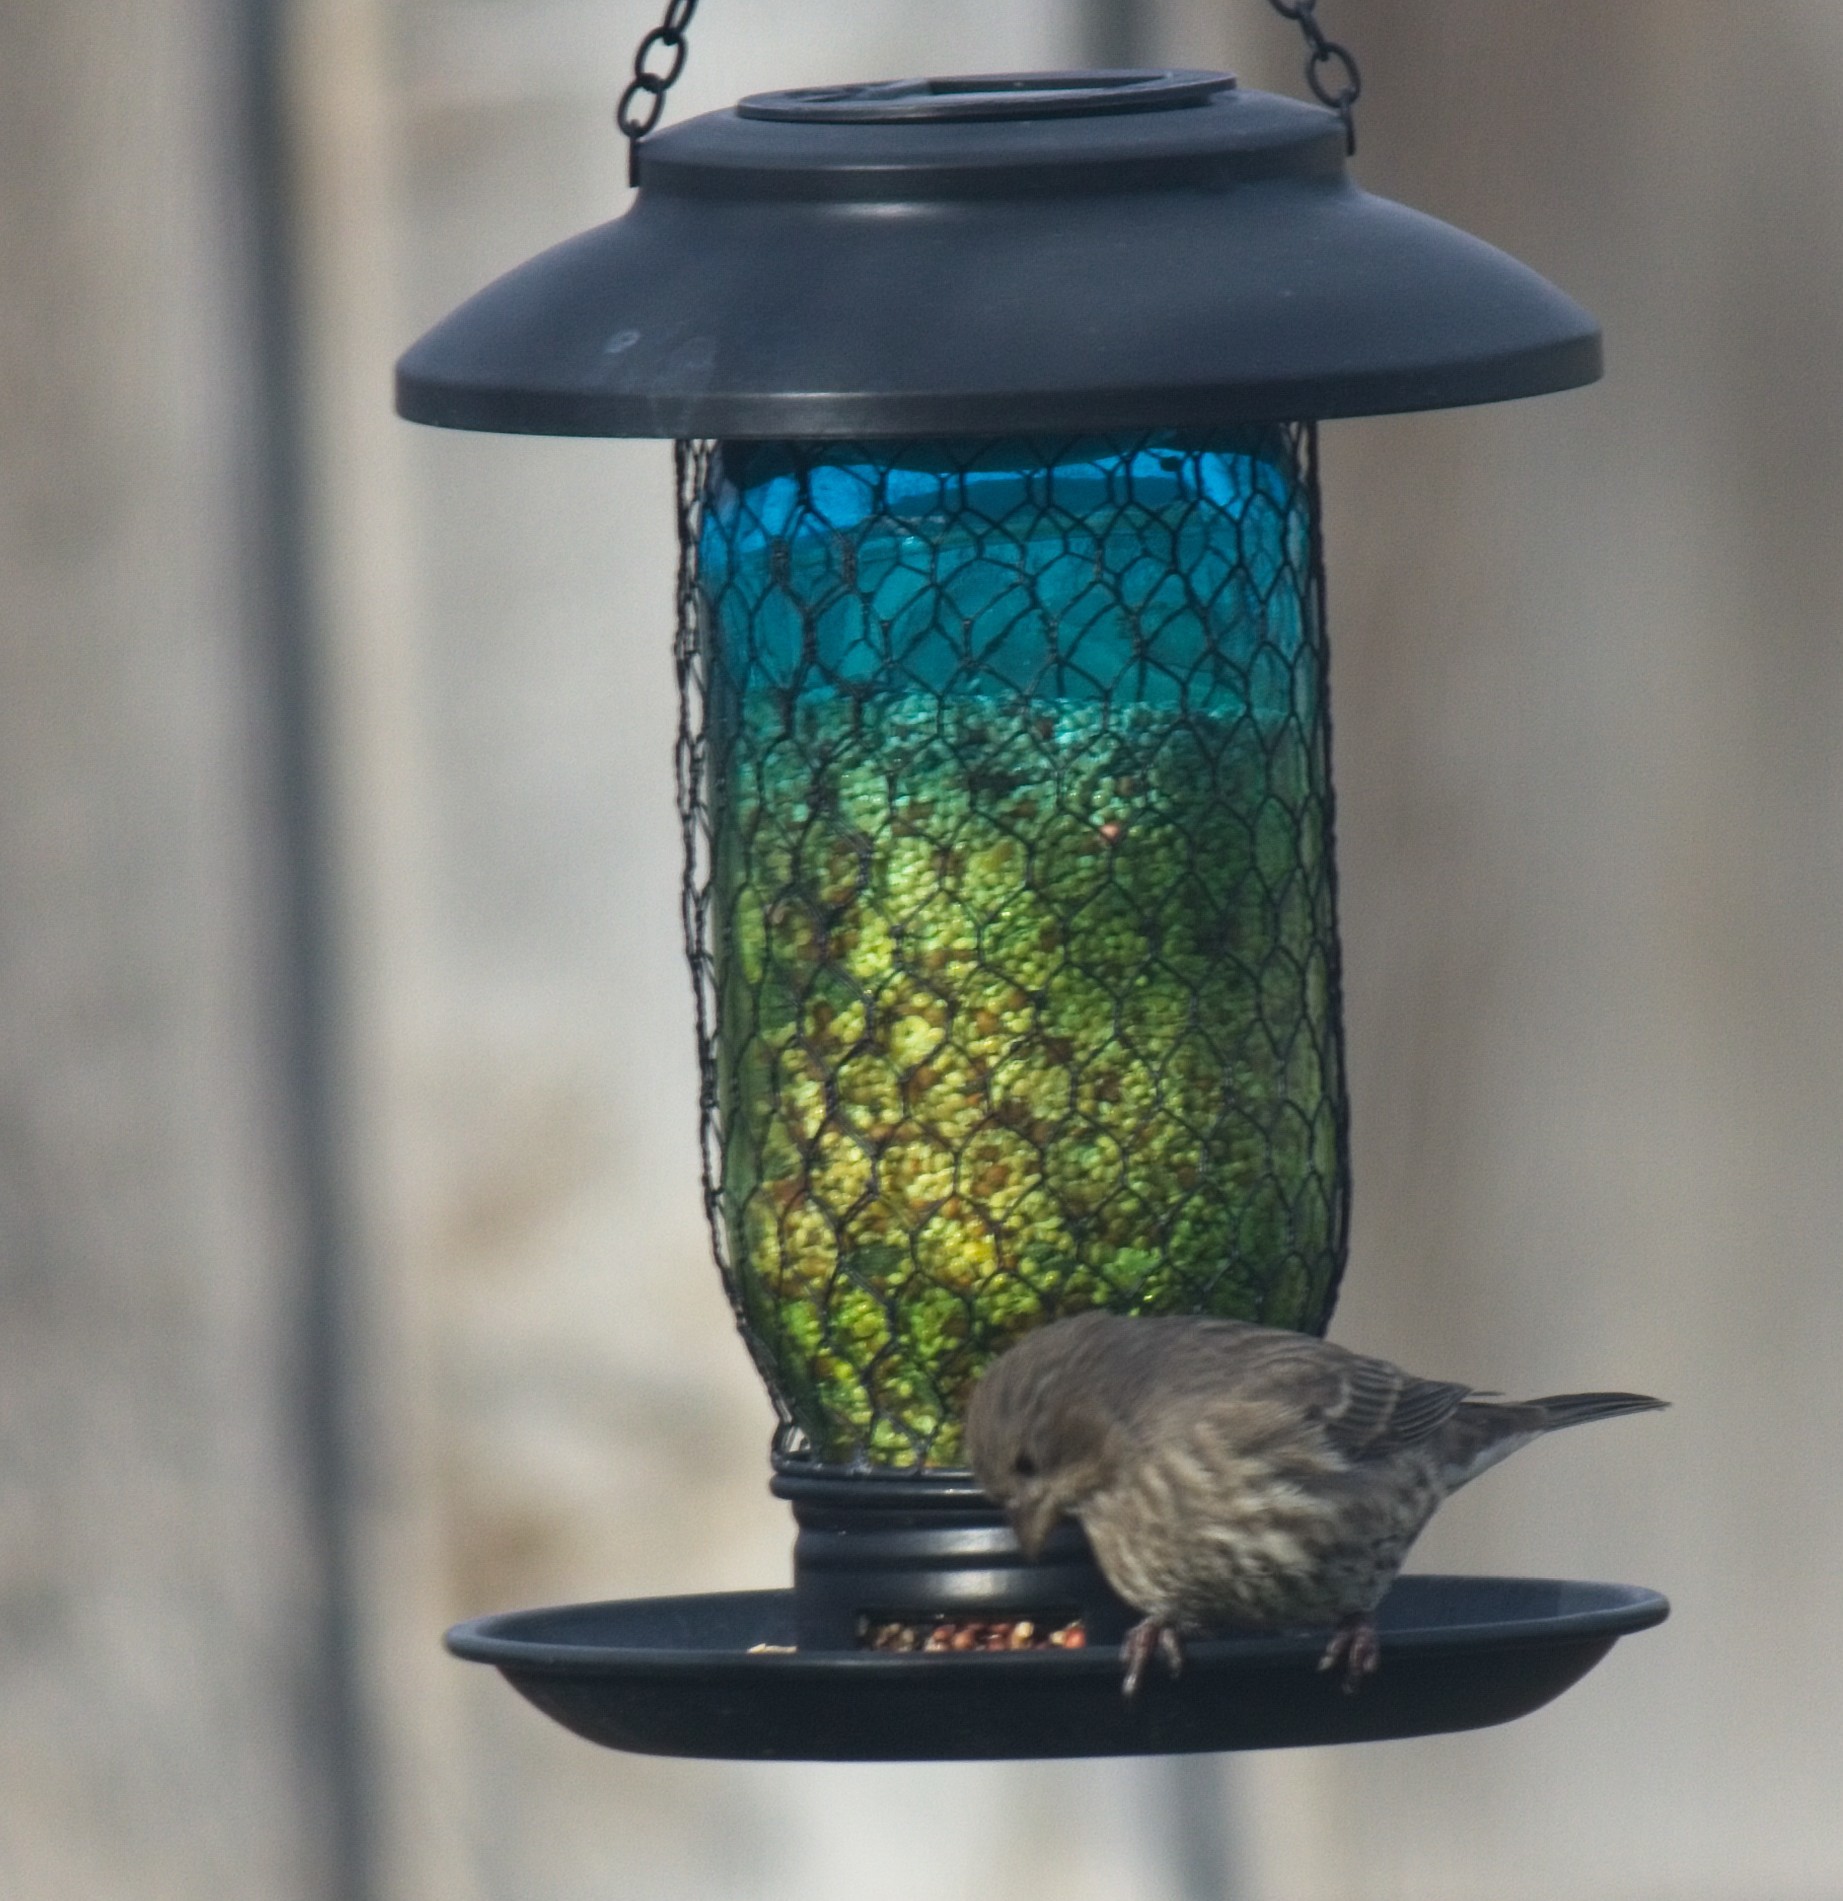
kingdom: Animalia
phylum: Chordata
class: Aves
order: Passeriformes
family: Fringillidae
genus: Haemorhous
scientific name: Haemorhous mexicanus
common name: House finch
